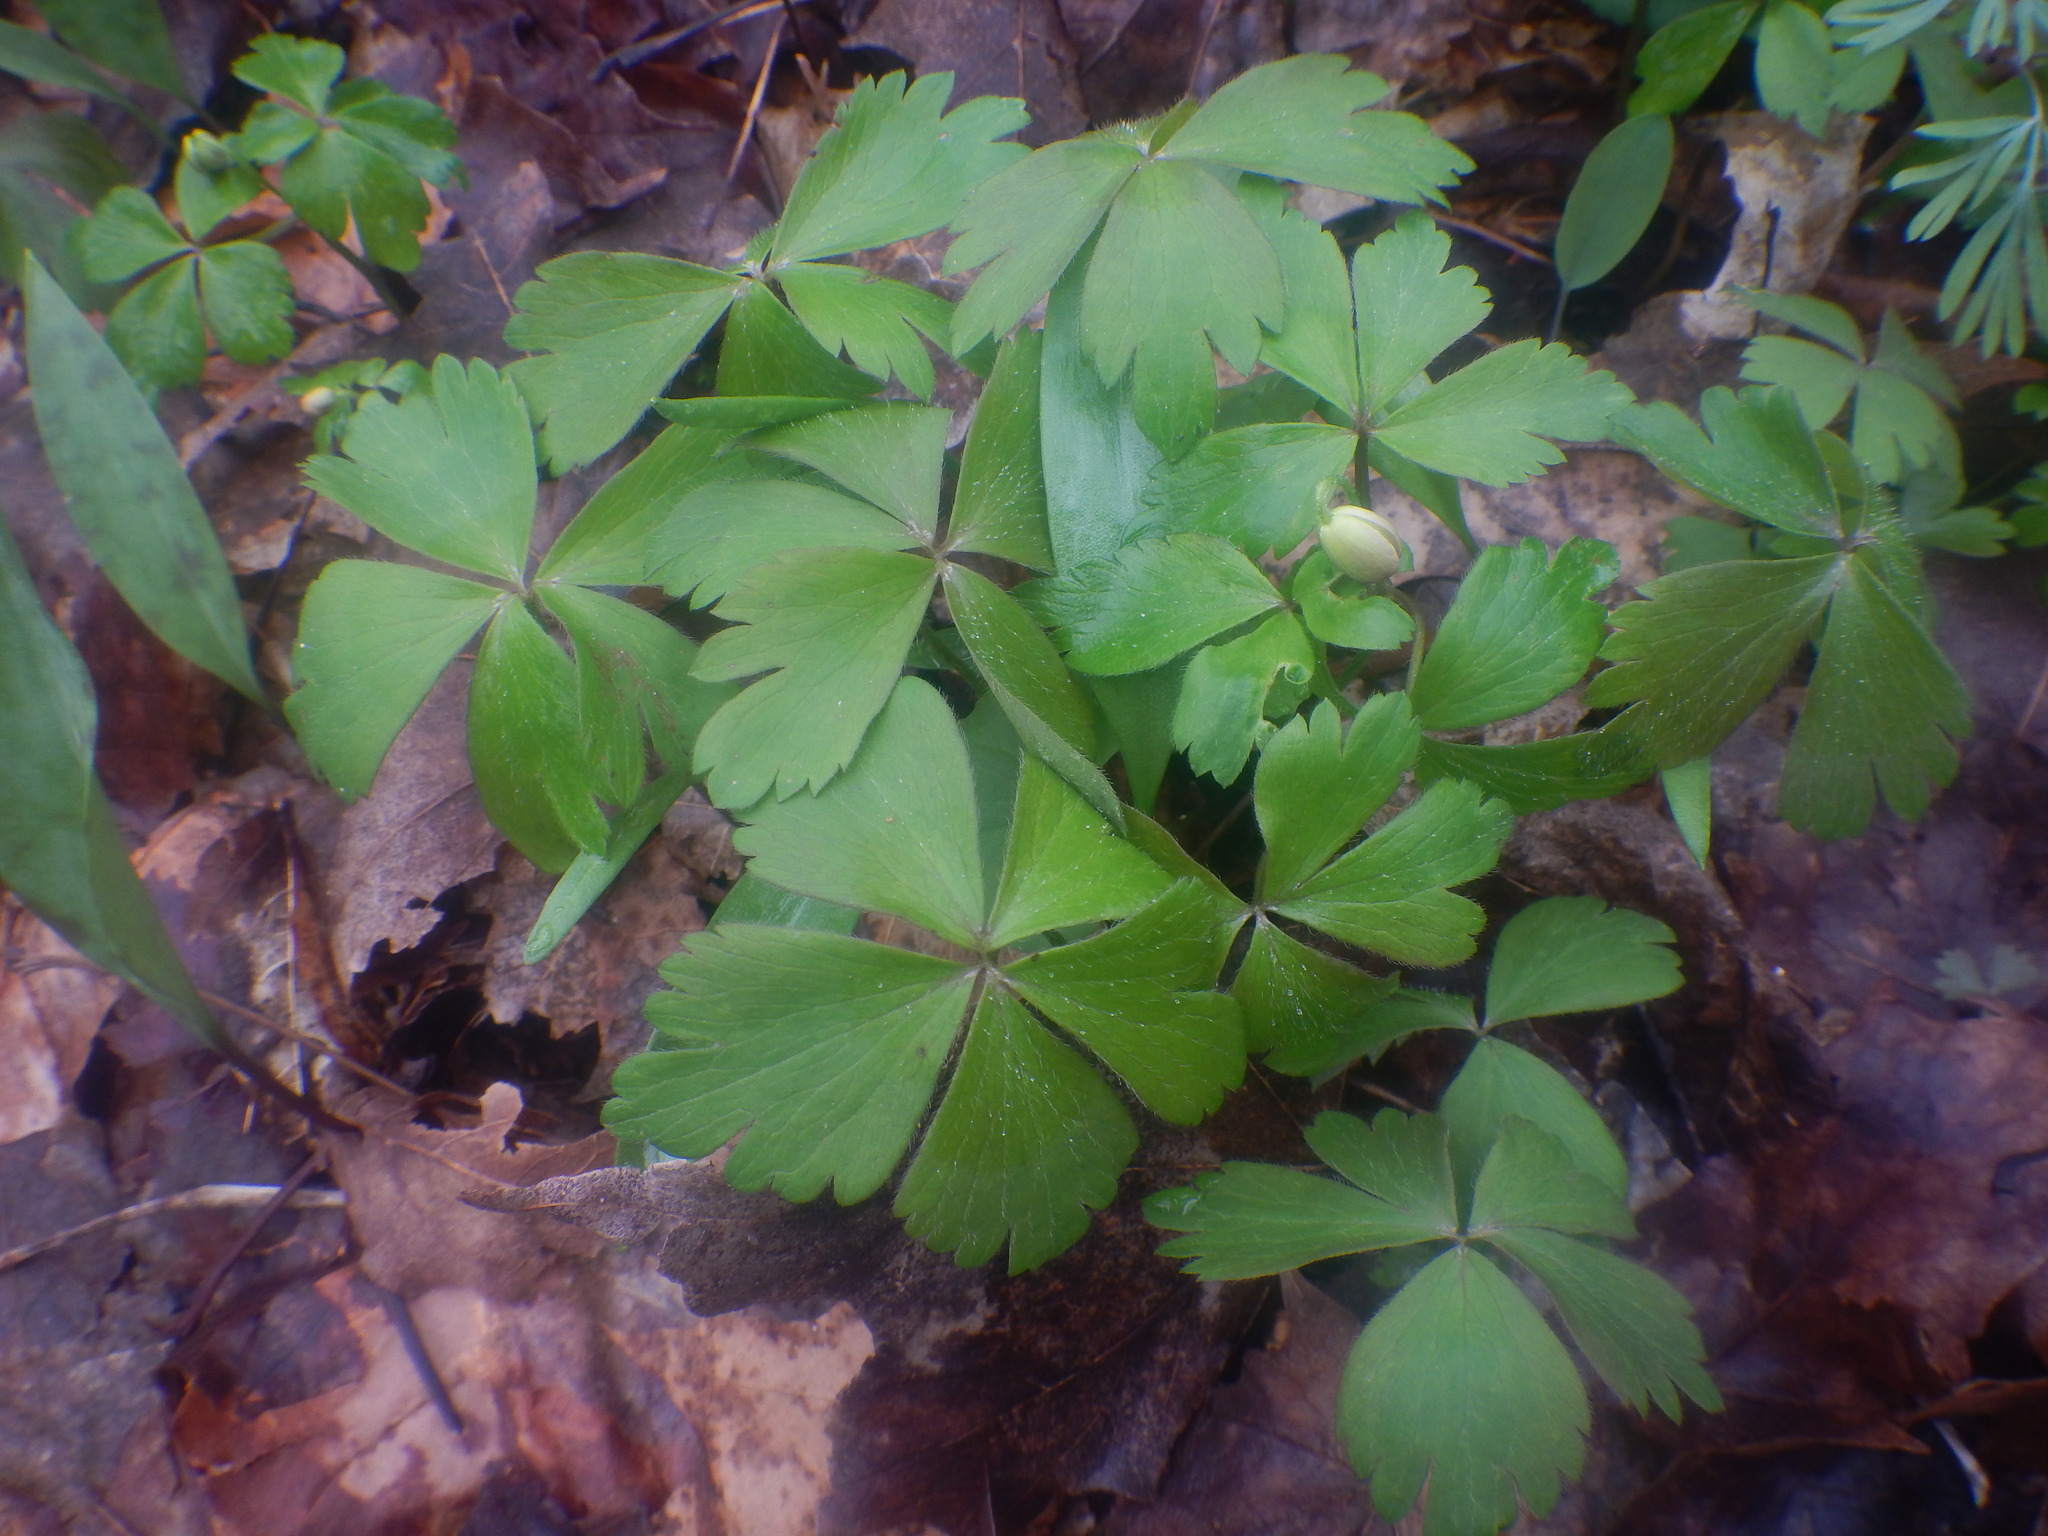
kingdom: Plantae
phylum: Tracheophyta
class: Magnoliopsida
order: Ranunculales
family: Ranunculaceae
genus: Anemone
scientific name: Anemone quinquefolia
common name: Wood anemone
